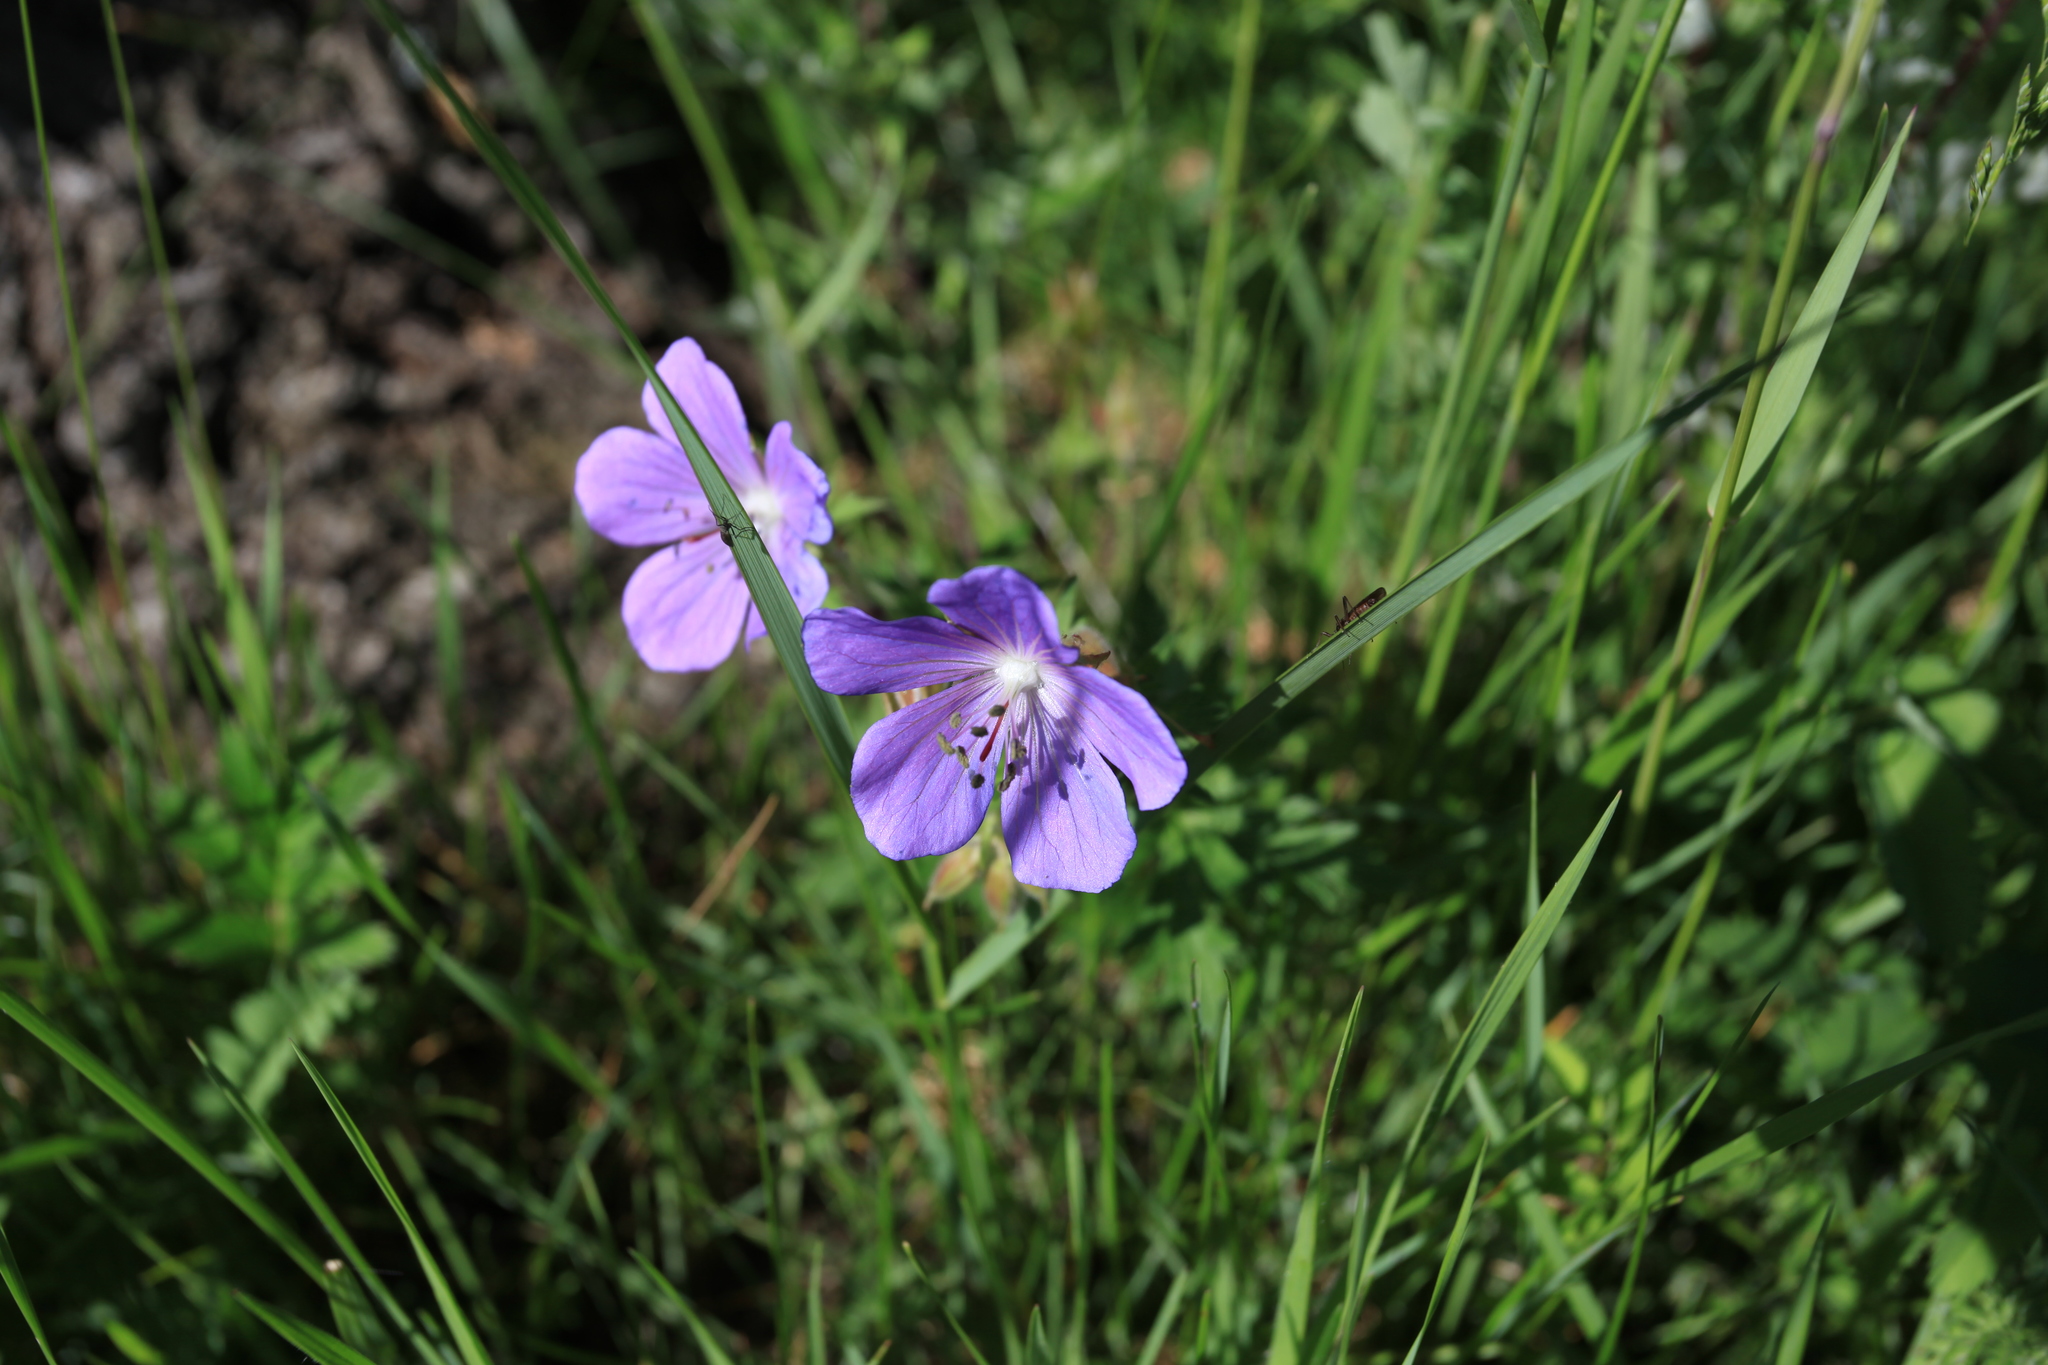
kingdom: Plantae
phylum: Tracheophyta
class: Magnoliopsida
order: Geraniales
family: Geraniaceae
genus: Geranium
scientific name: Geranium pratense
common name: Meadow crane's-bill
